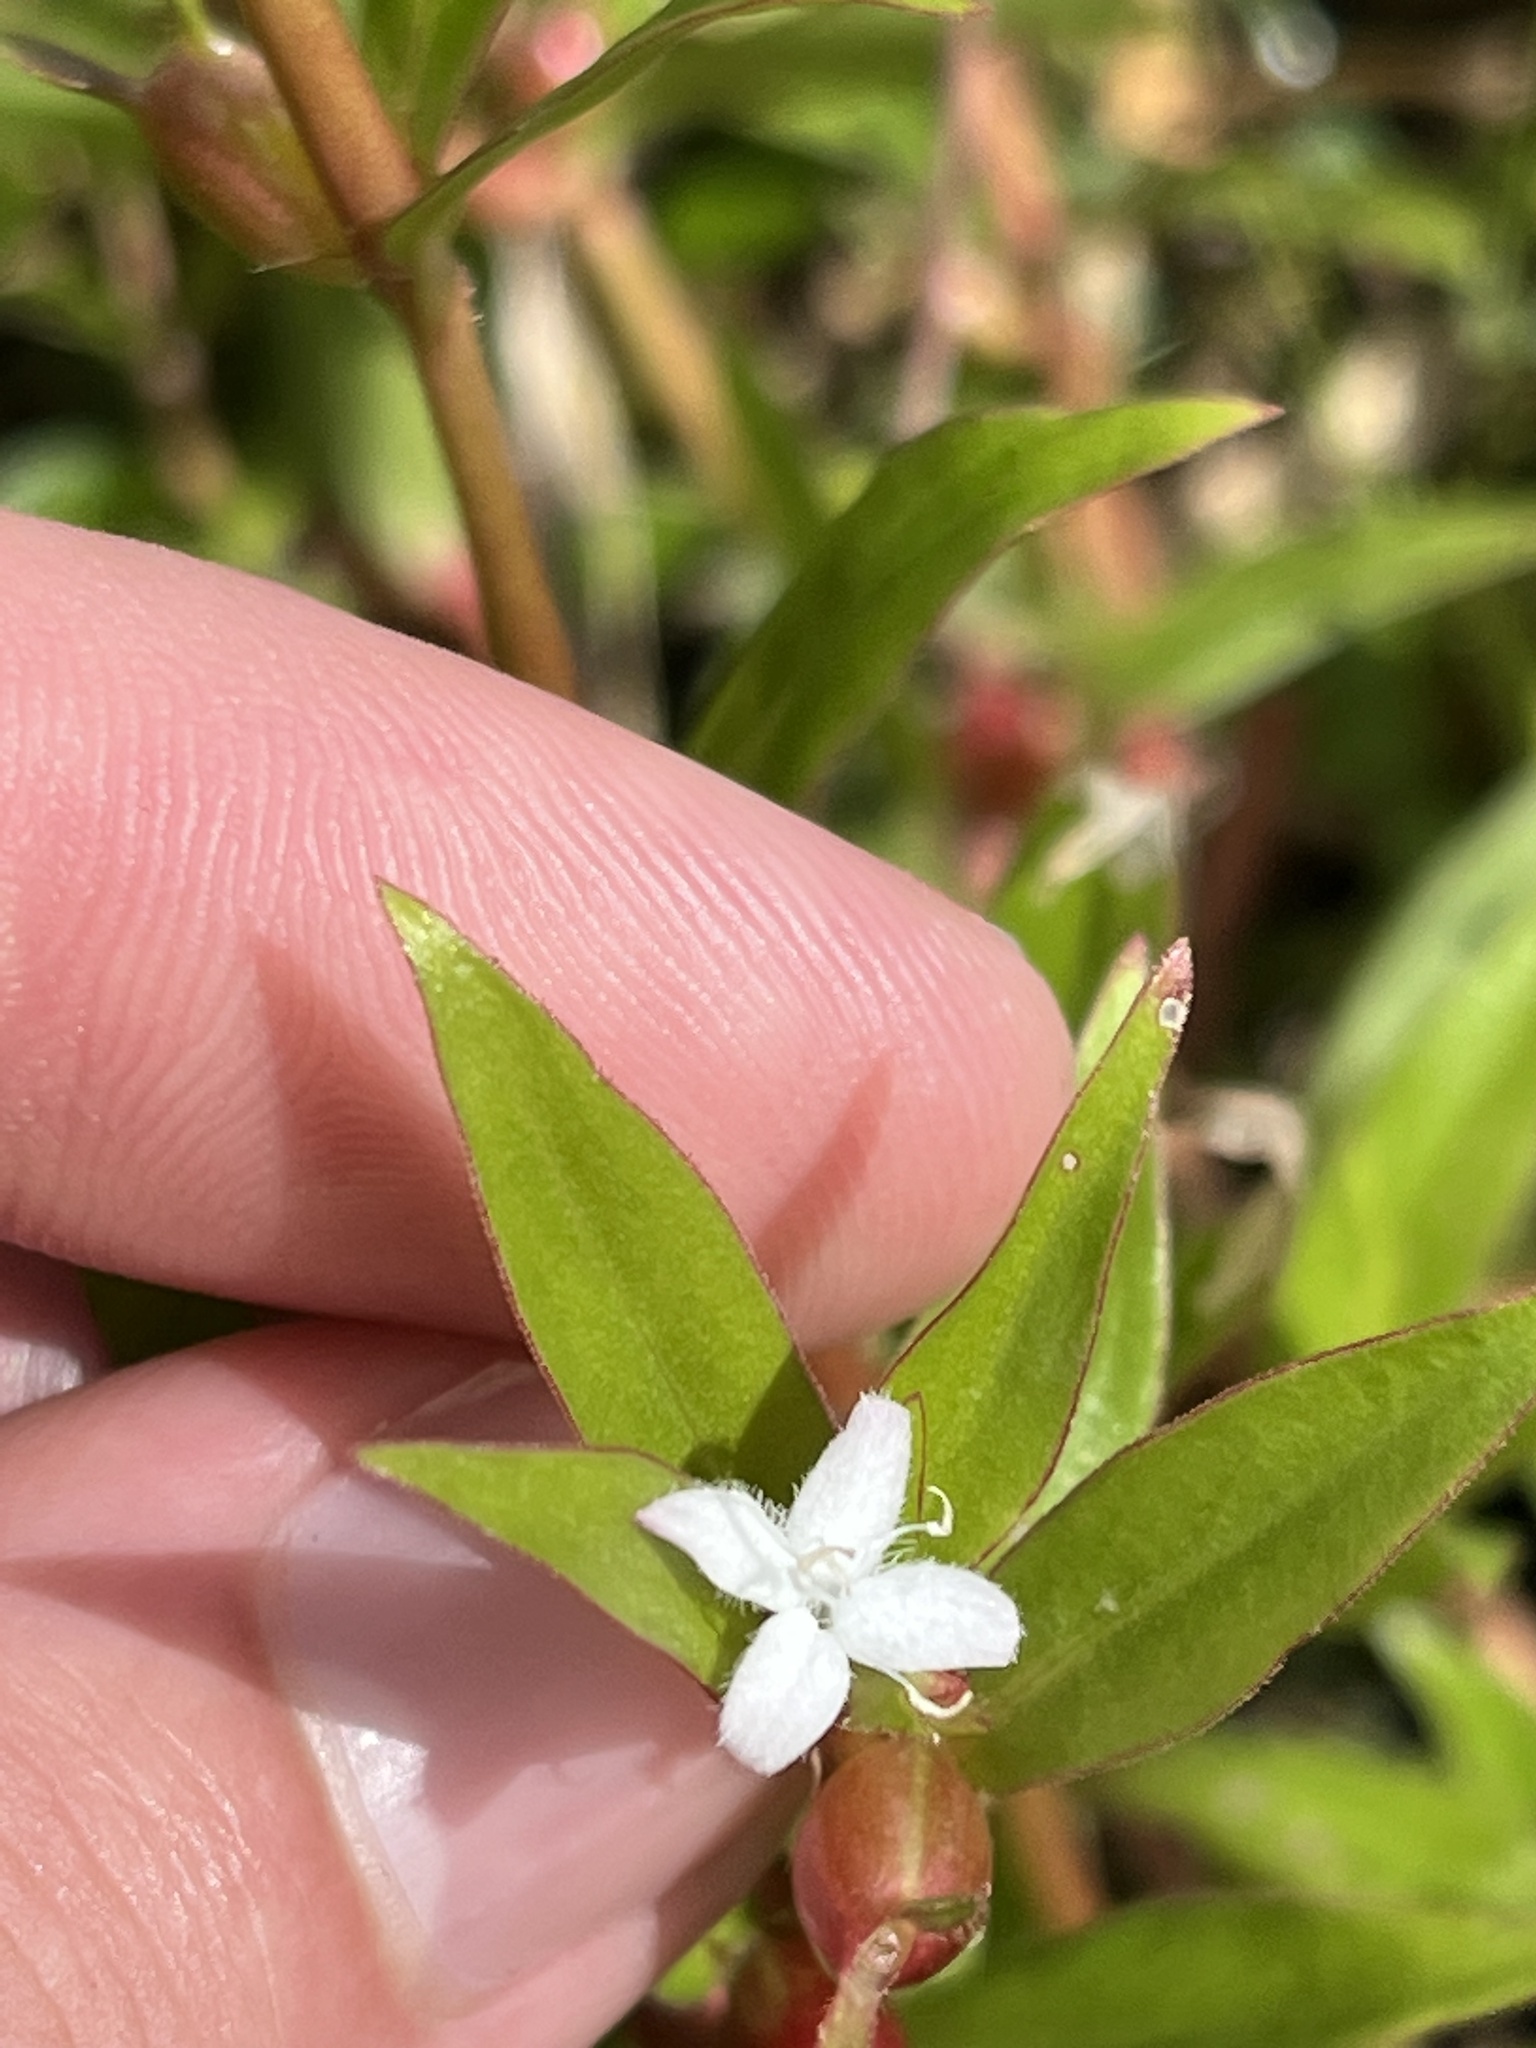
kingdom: Plantae
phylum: Tracheophyta
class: Magnoliopsida
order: Gentianales
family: Rubiaceae
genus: Diodia
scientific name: Diodia virginiana
